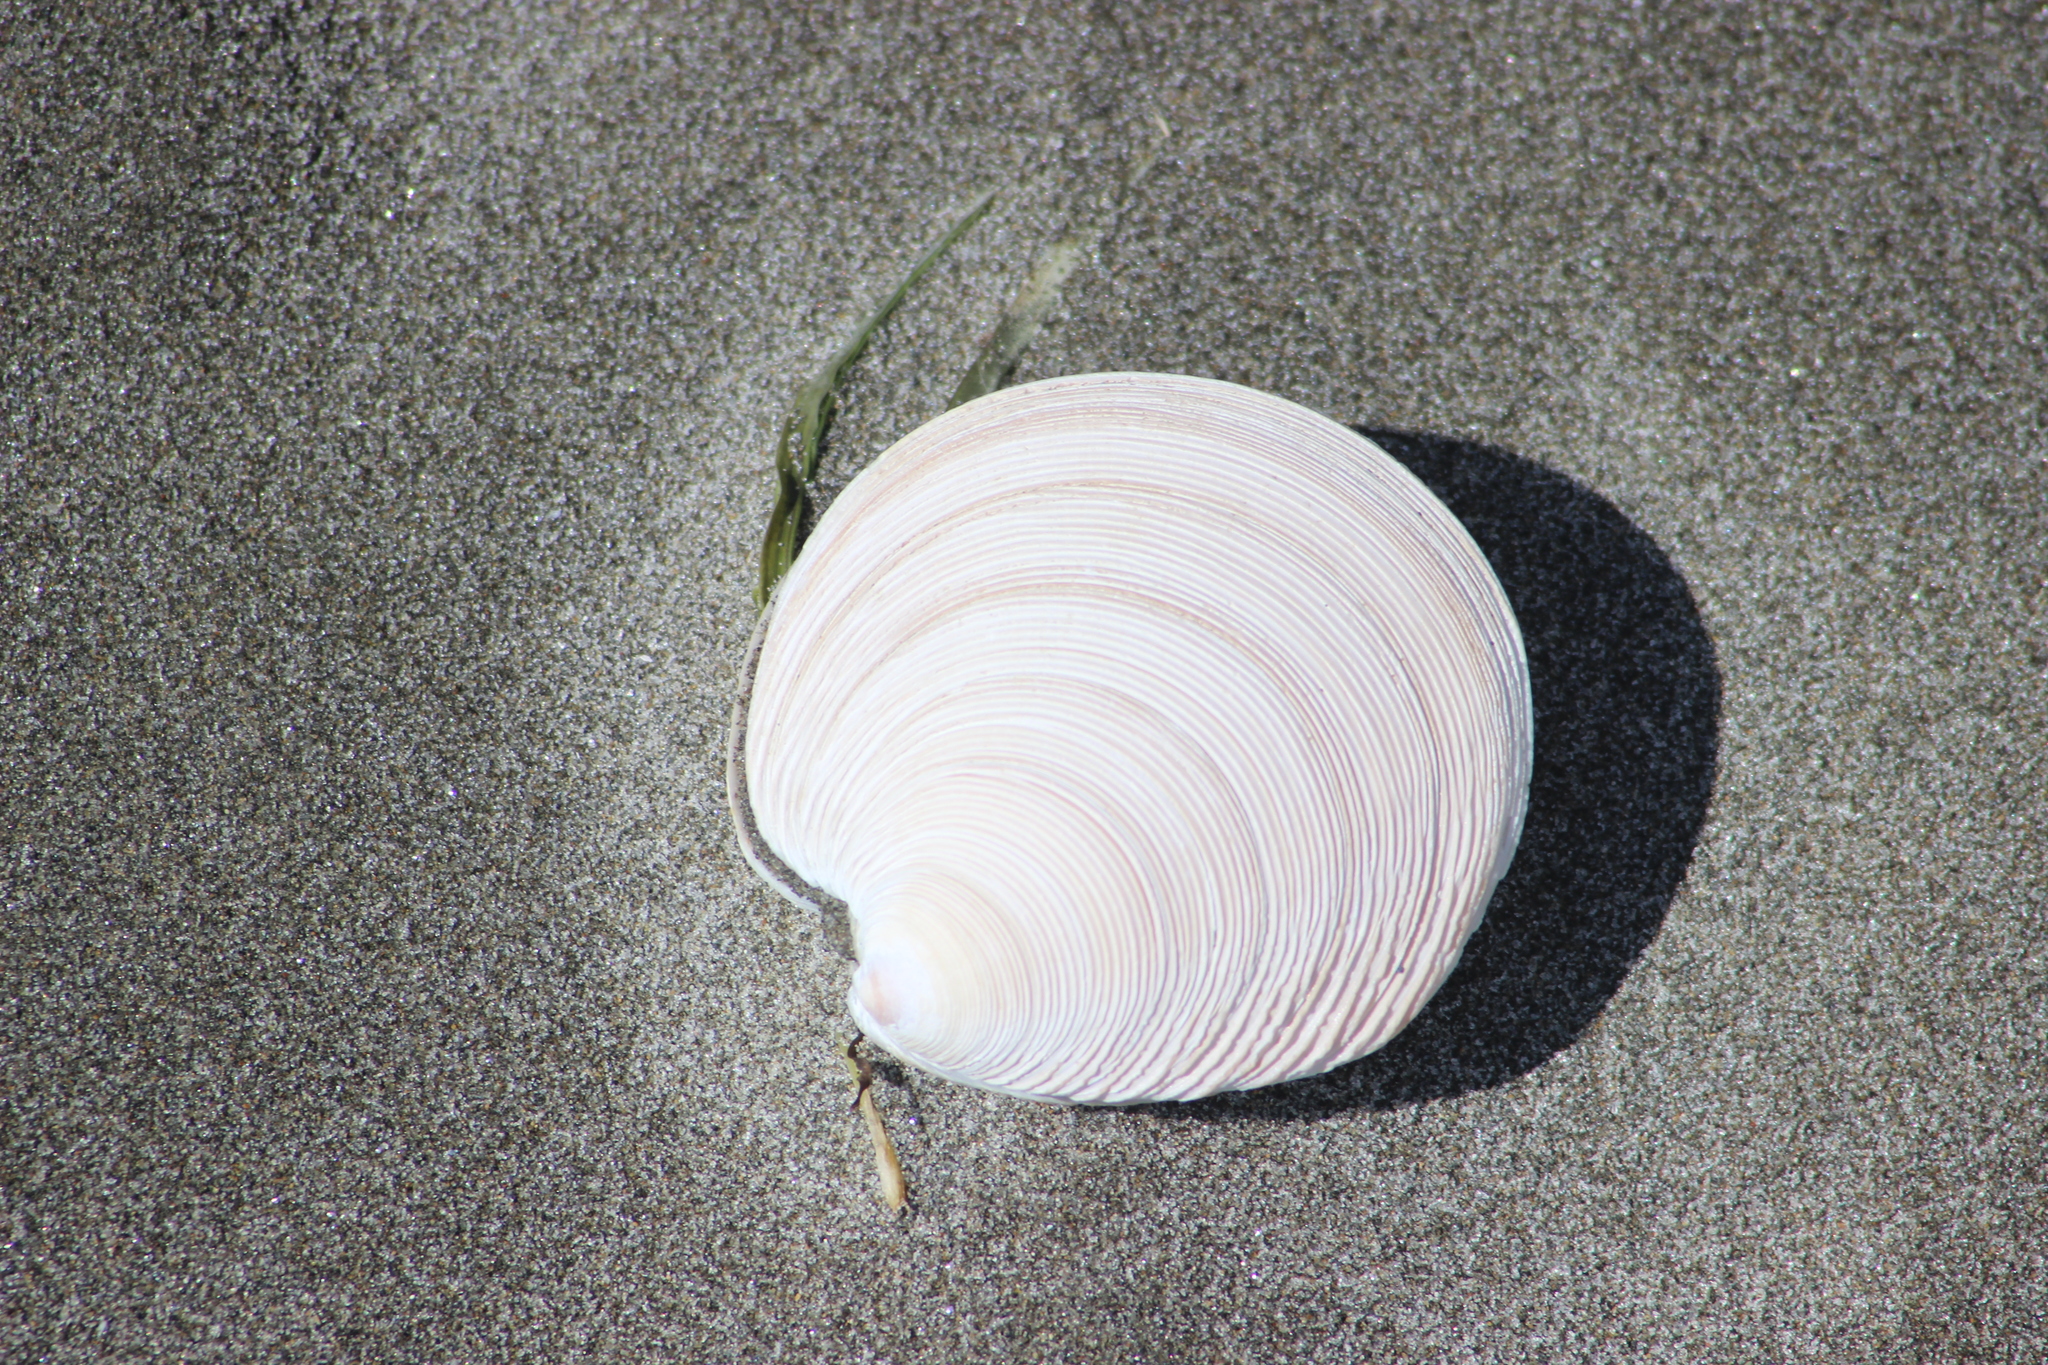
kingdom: Animalia
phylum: Mollusca
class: Bivalvia
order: Venerida
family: Veneridae
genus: Dosinia
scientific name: Dosinia anus
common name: Old-woman dosinia
